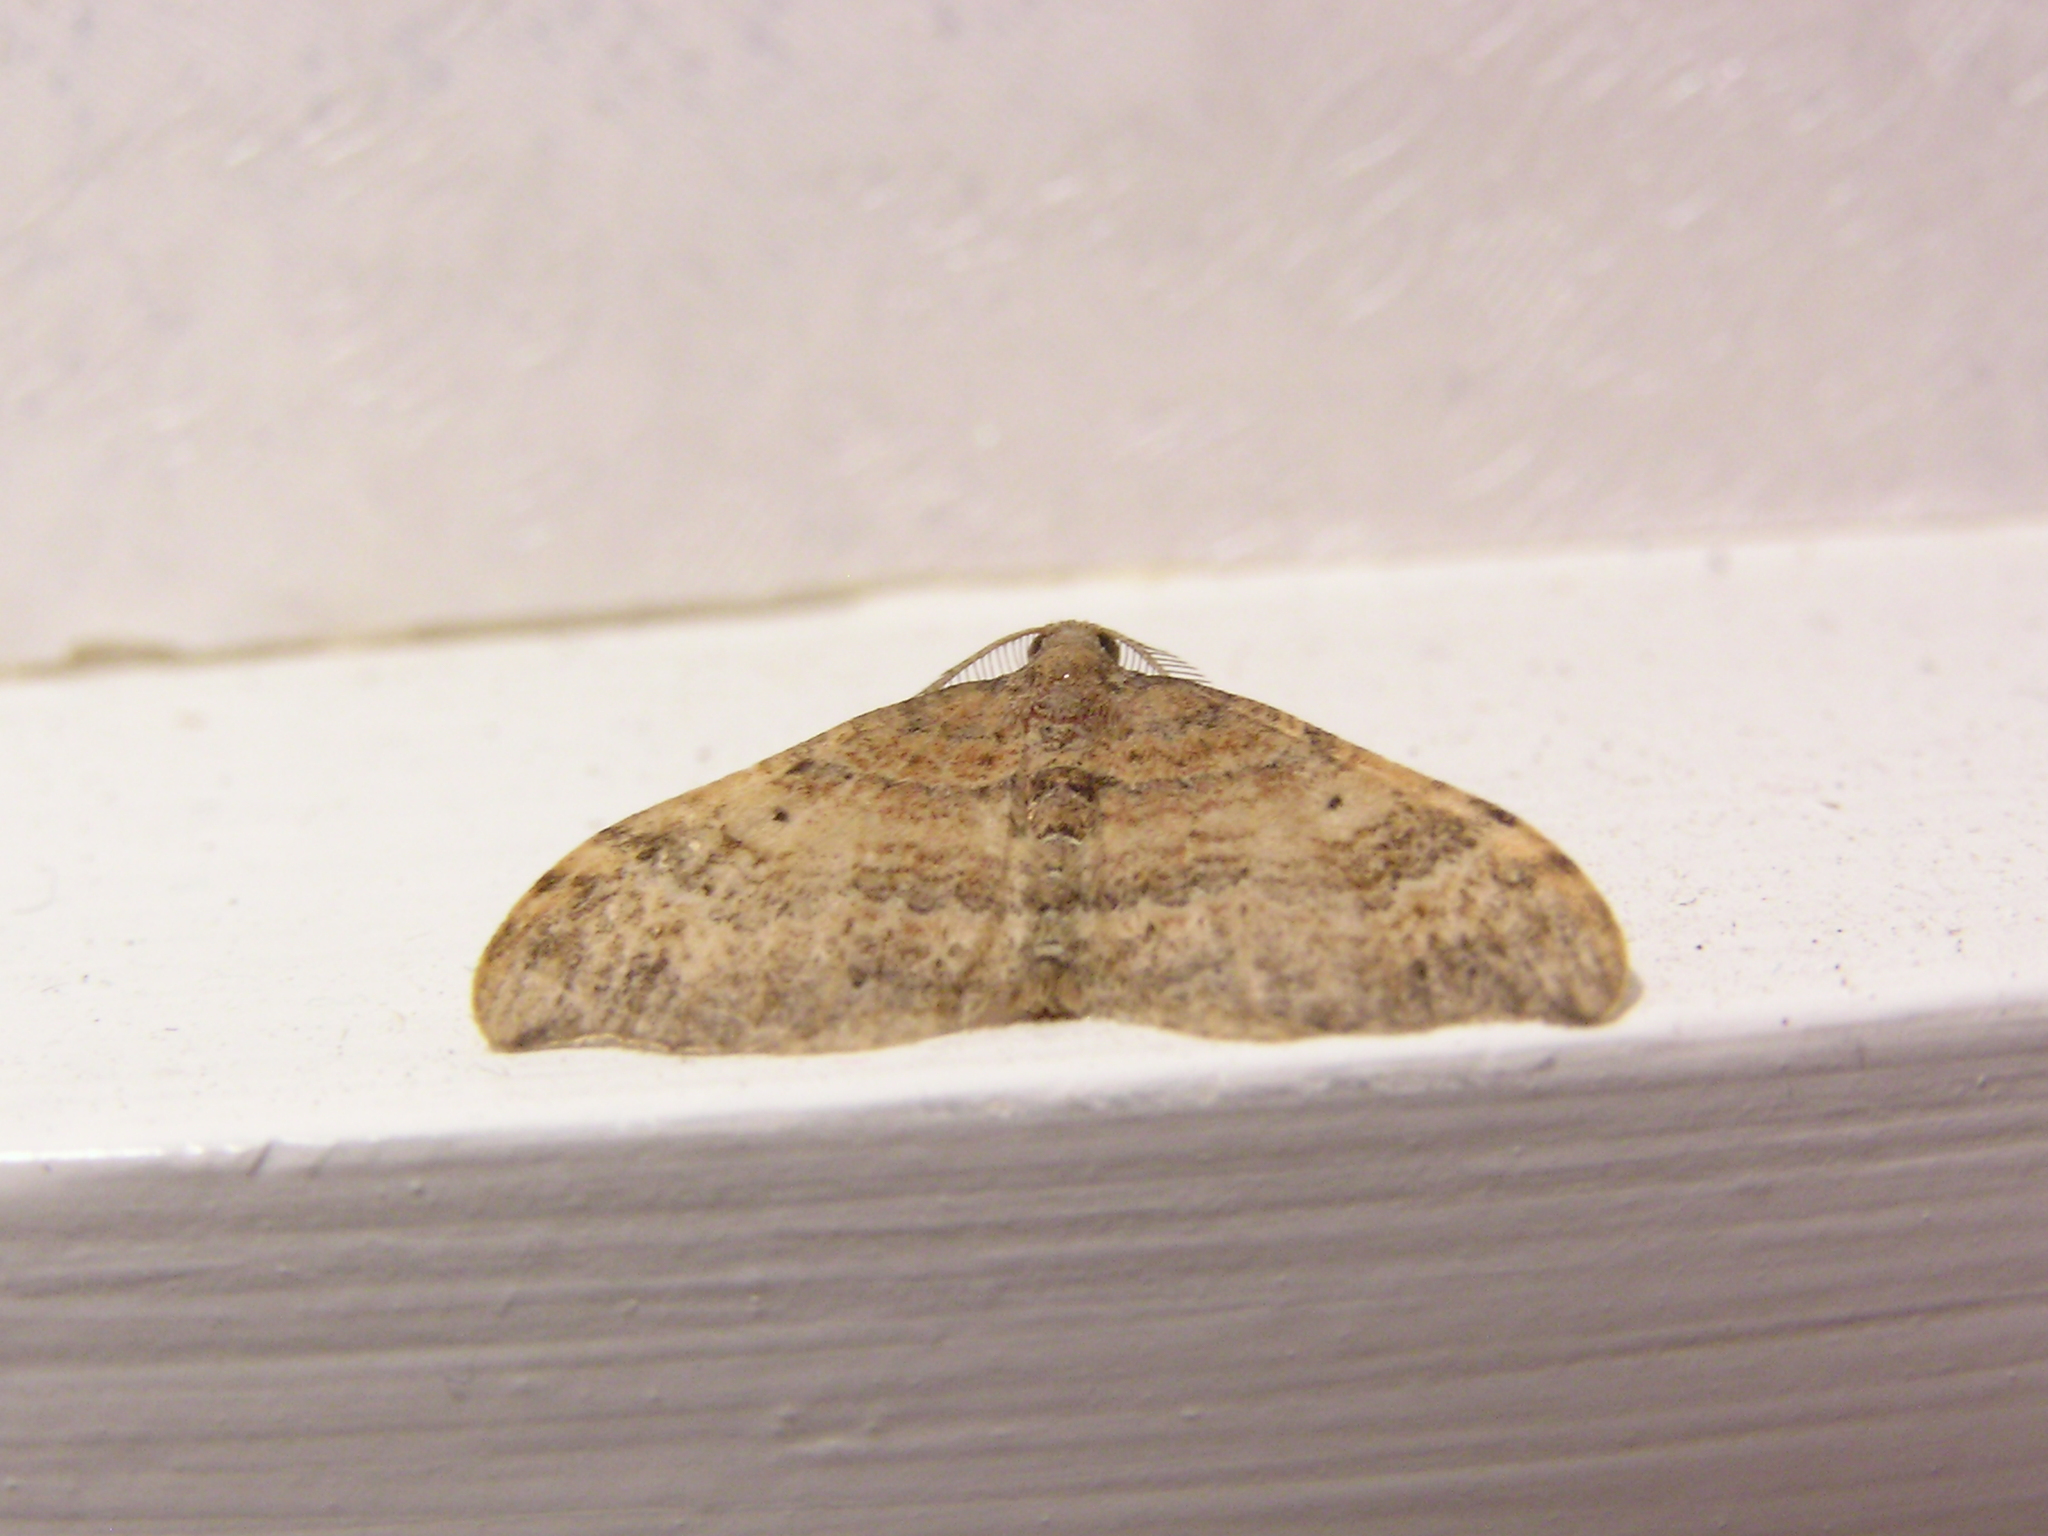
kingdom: Animalia
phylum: Arthropoda
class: Insecta
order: Lepidoptera
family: Geometridae
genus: Homodotis
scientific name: Homodotis megaspilata
